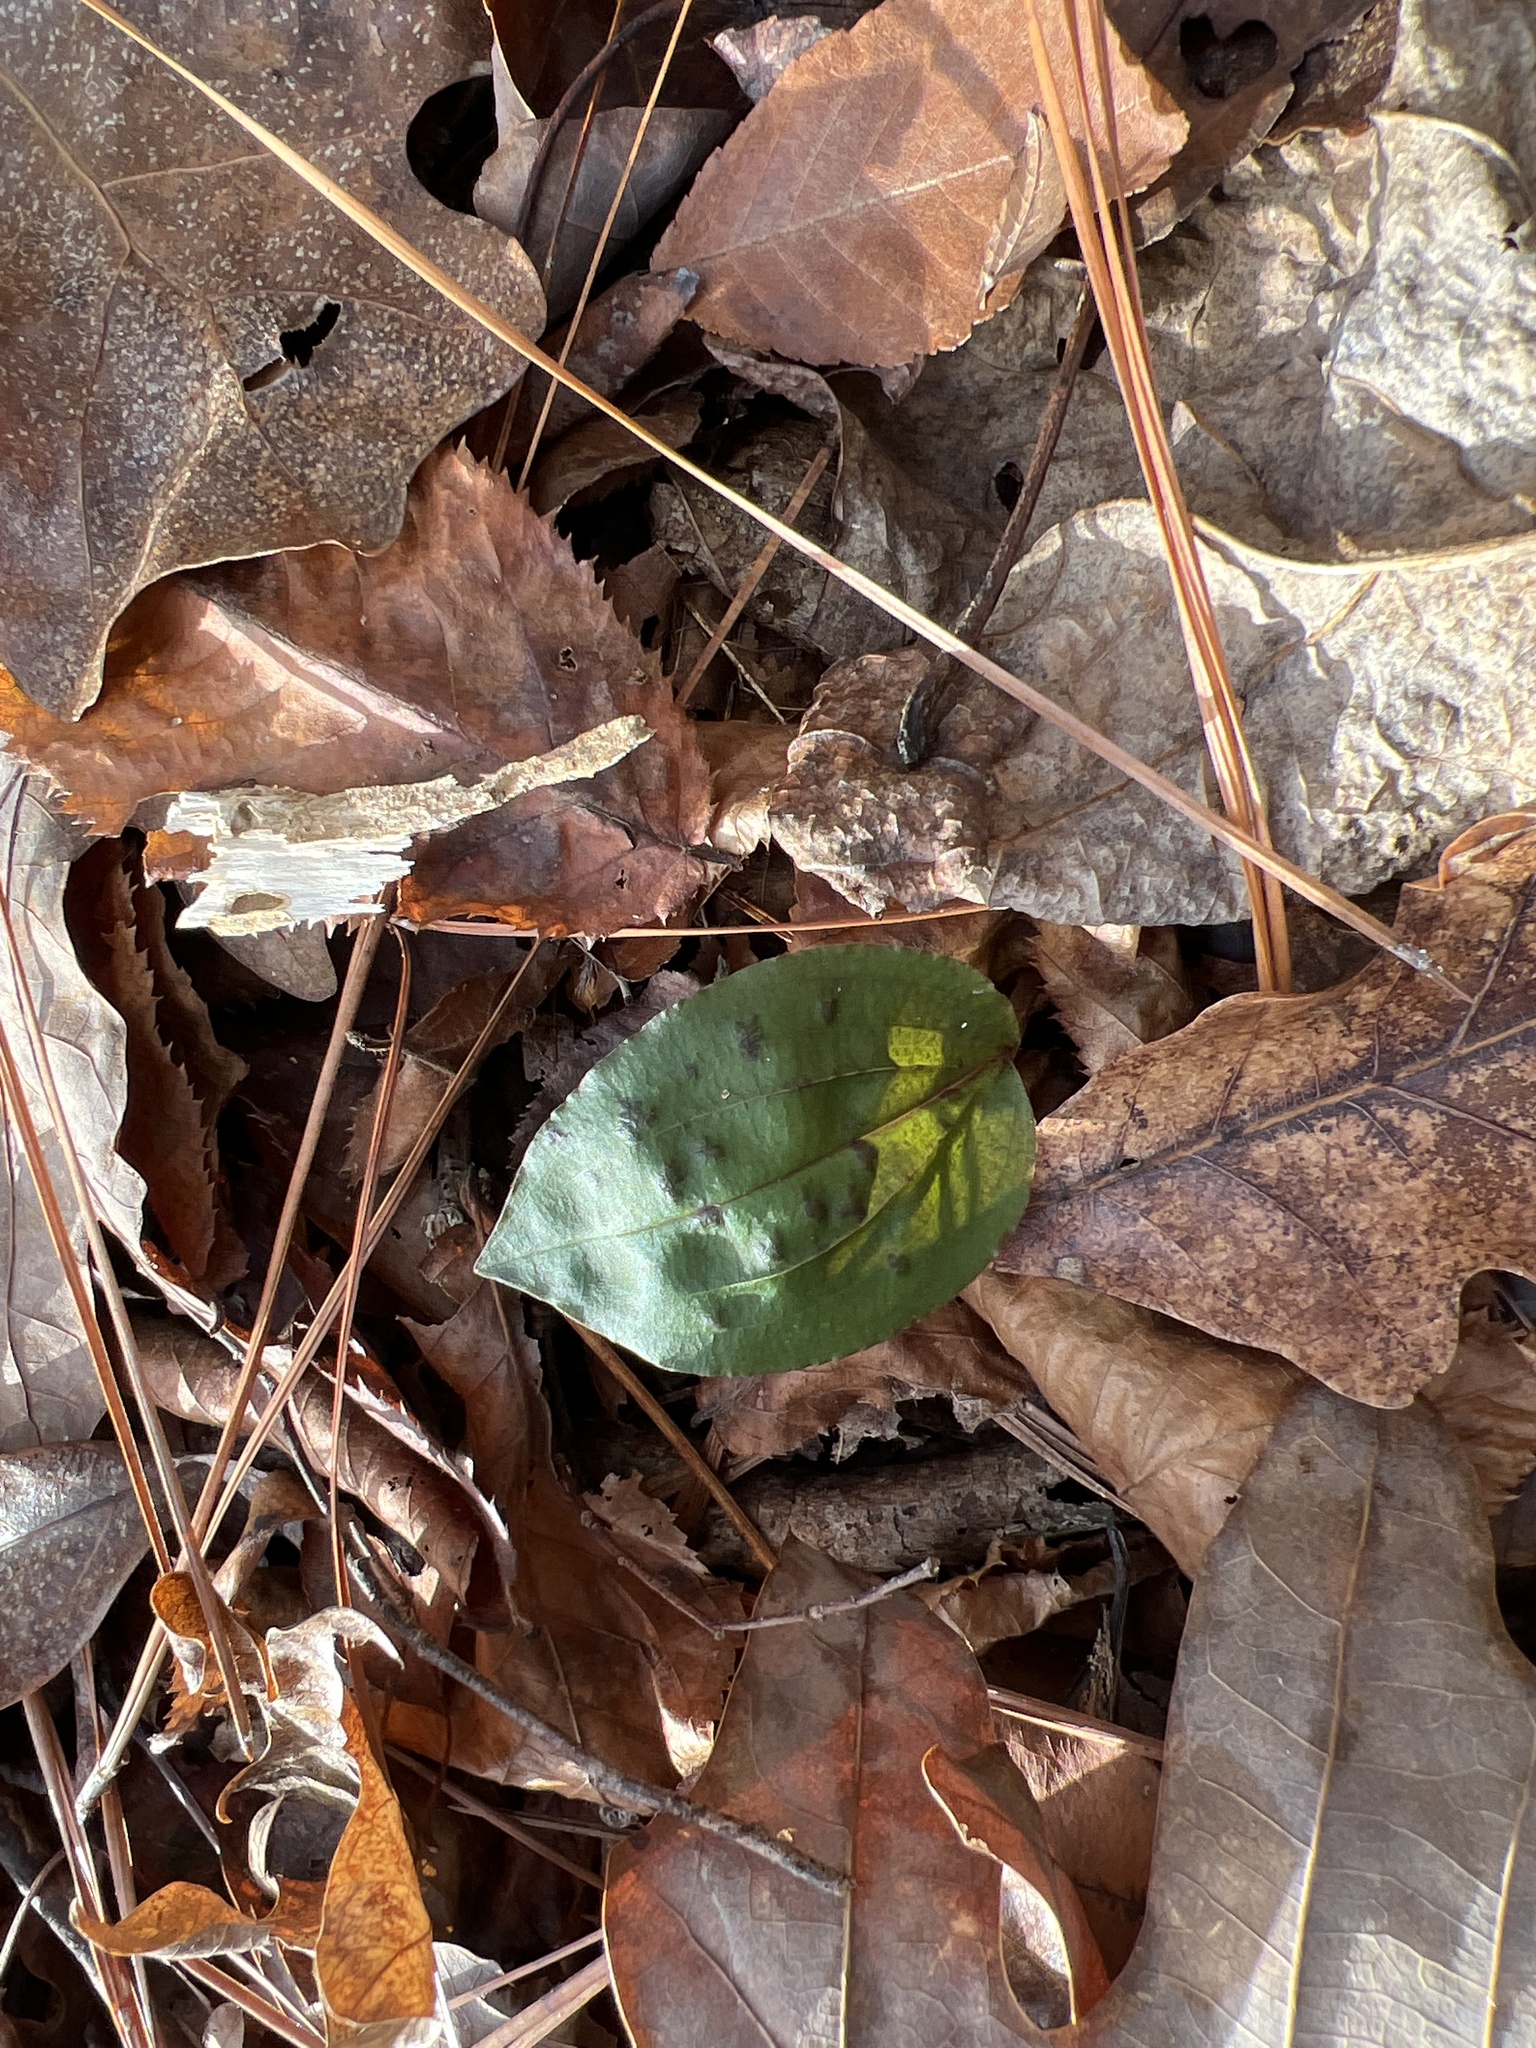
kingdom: Plantae
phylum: Tracheophyta
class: Liliopsida
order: Asparagales
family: Orchidaceae
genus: Tipularia
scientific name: Tipularia discolor
